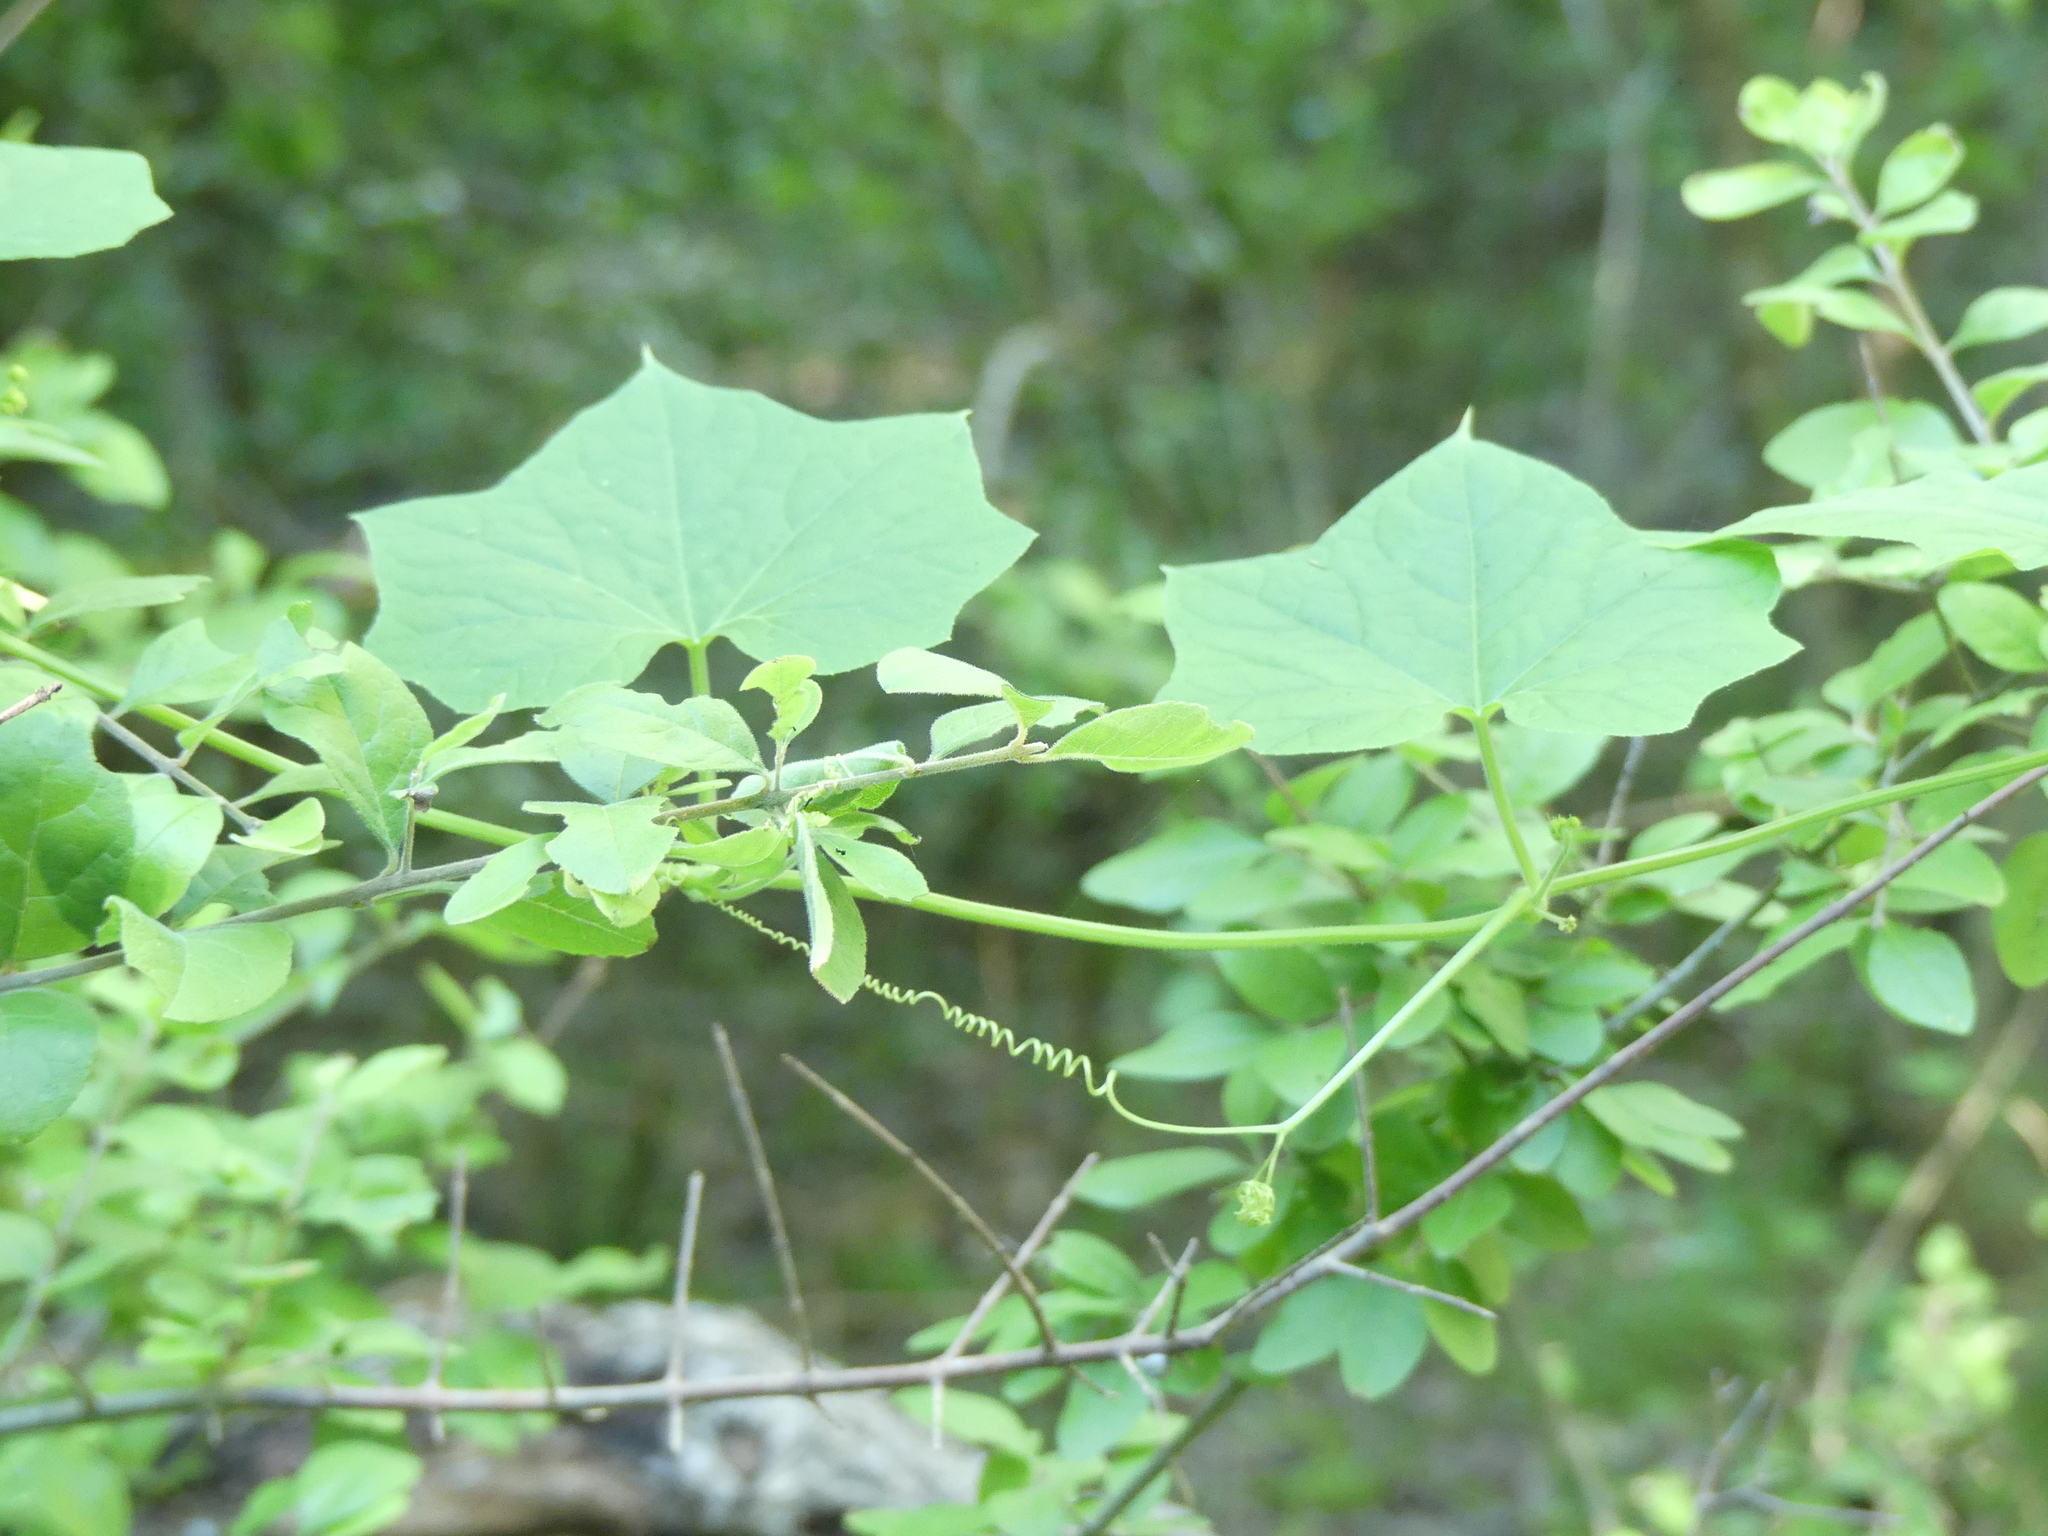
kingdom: Plantae
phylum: Tracheophyta
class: Magnoliopsida
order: Cucurbitales
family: Cucurbitaceae
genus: Sicyos
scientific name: Sicyos angulatus
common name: Angled burr cucumber
